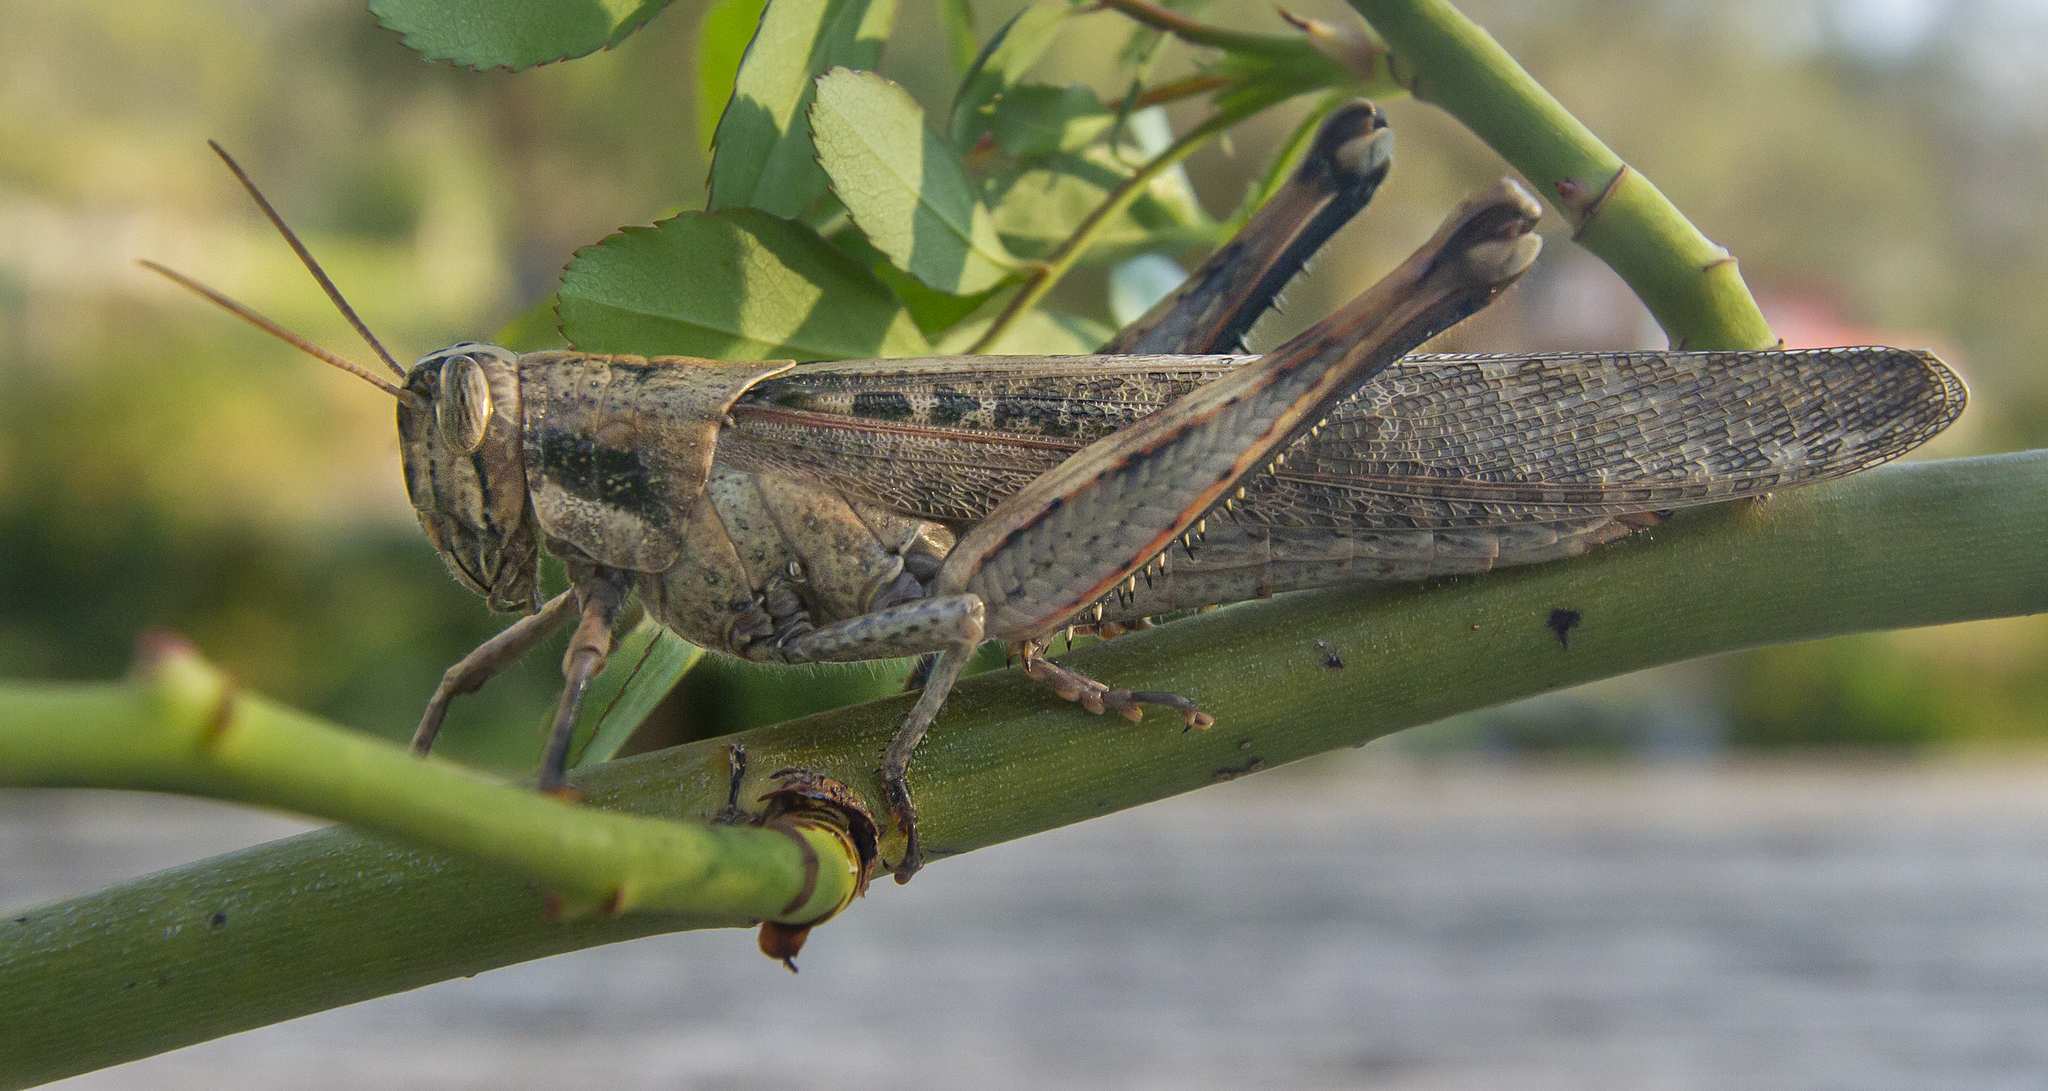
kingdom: Animalia
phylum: Arthropoda
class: Insecta
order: Orthoptera
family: Acrididae
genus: Schistocerca
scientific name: Schistocerca nitens
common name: Vagrant grasshopper
